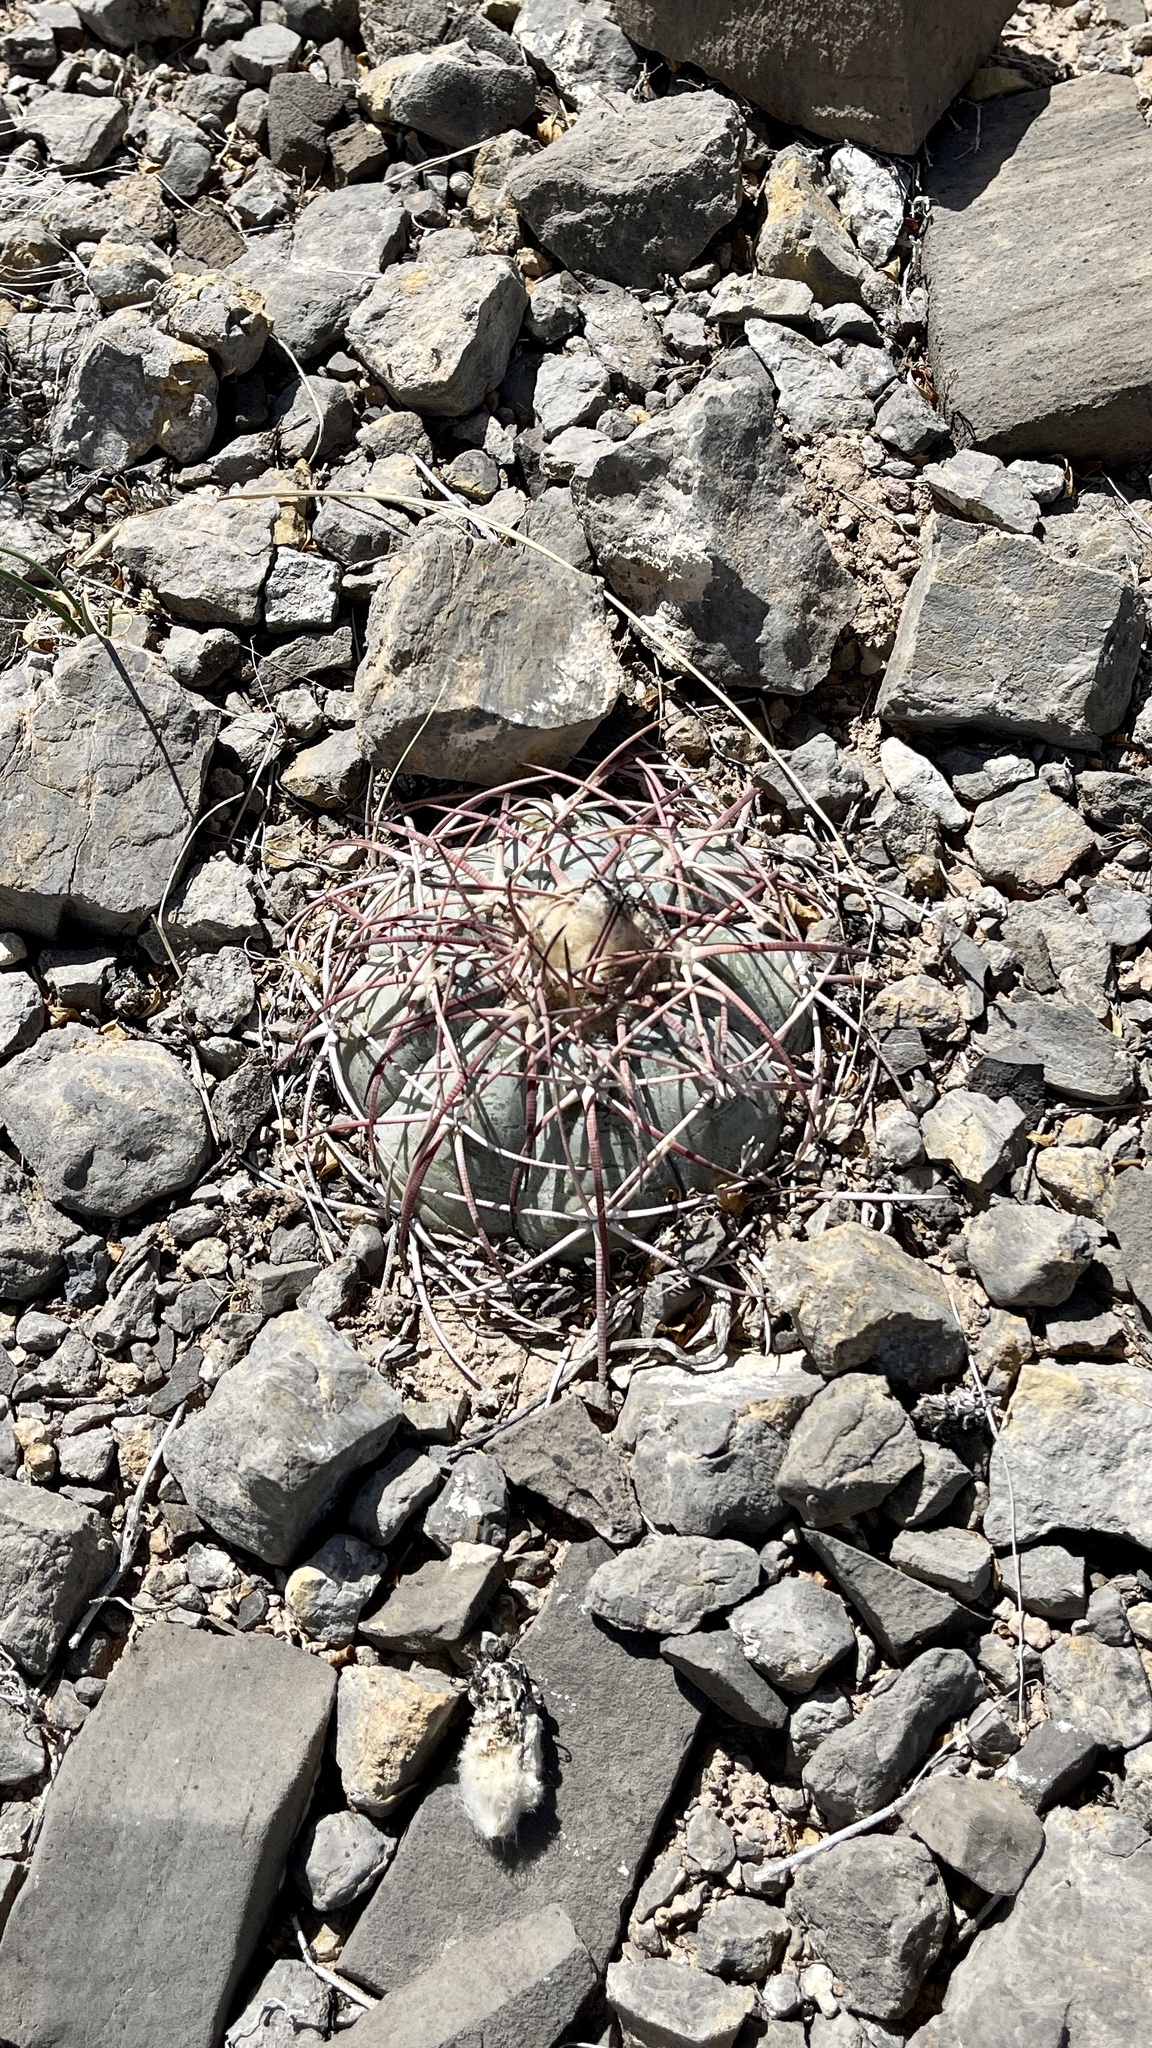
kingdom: Plantae
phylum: Tracheophyta
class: Magnoliopsida
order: Caryophyllales
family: Cactaceae
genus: Echinocactus
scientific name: Echinocactus horizonthalonius
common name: Devilshead
